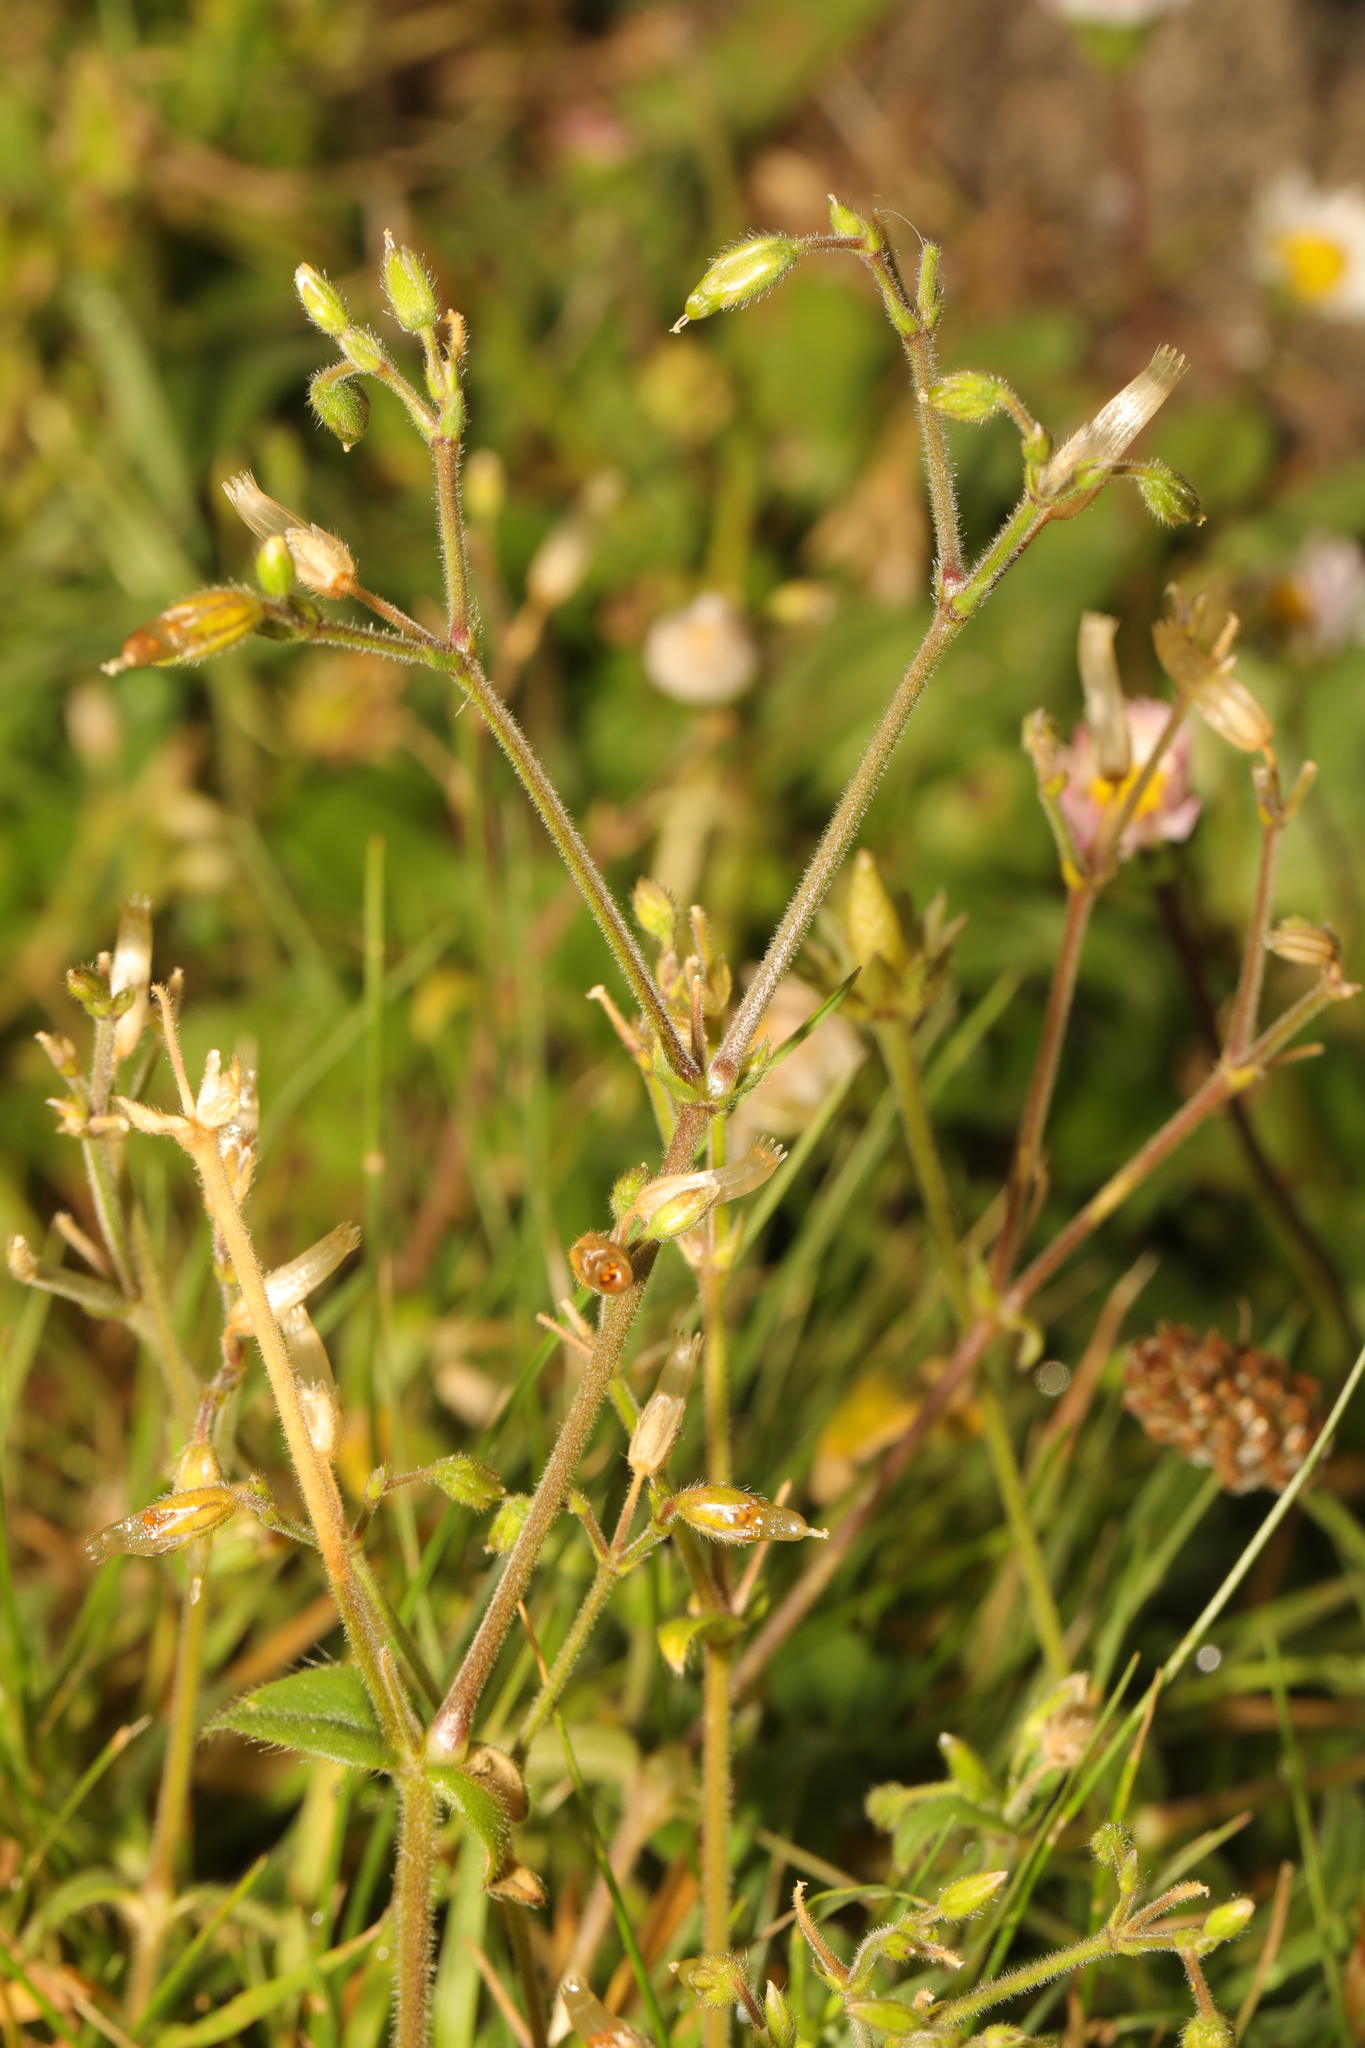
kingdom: Plantae
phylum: Tracheophyta
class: Magnoliopsida
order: Caryophyllales
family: Caryophyllaceae
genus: Cerastium
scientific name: Cerastium fontanum
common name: Common mouse-ear
